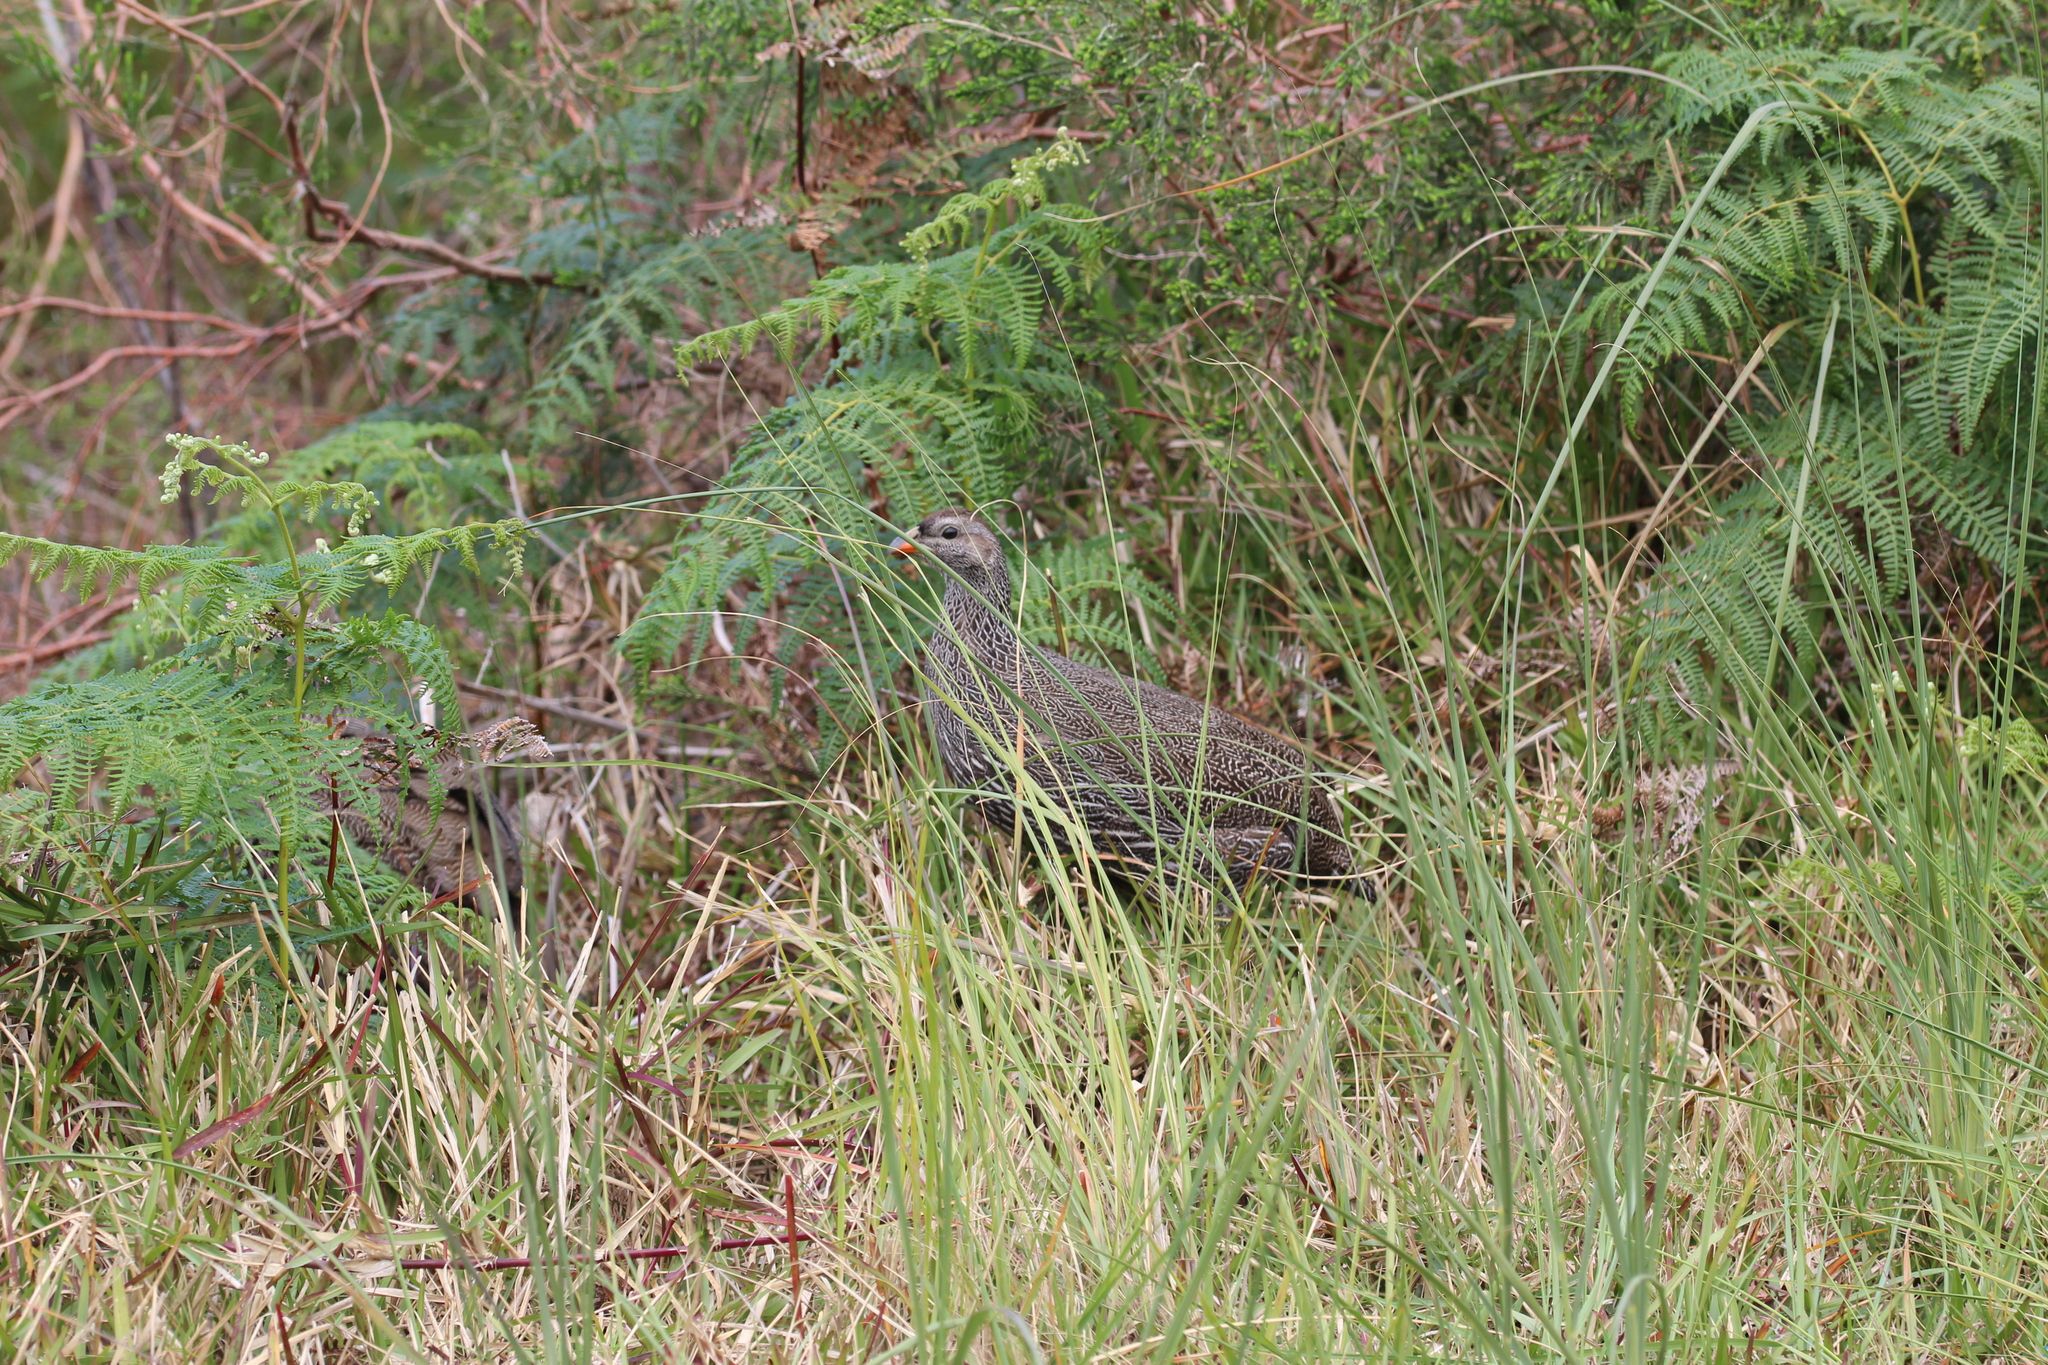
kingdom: Animalia
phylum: Chordata
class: Aves
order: Galliformes
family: Phasianidae
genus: Pternistis
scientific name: Pternistis capensis
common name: Cape spurfowl
